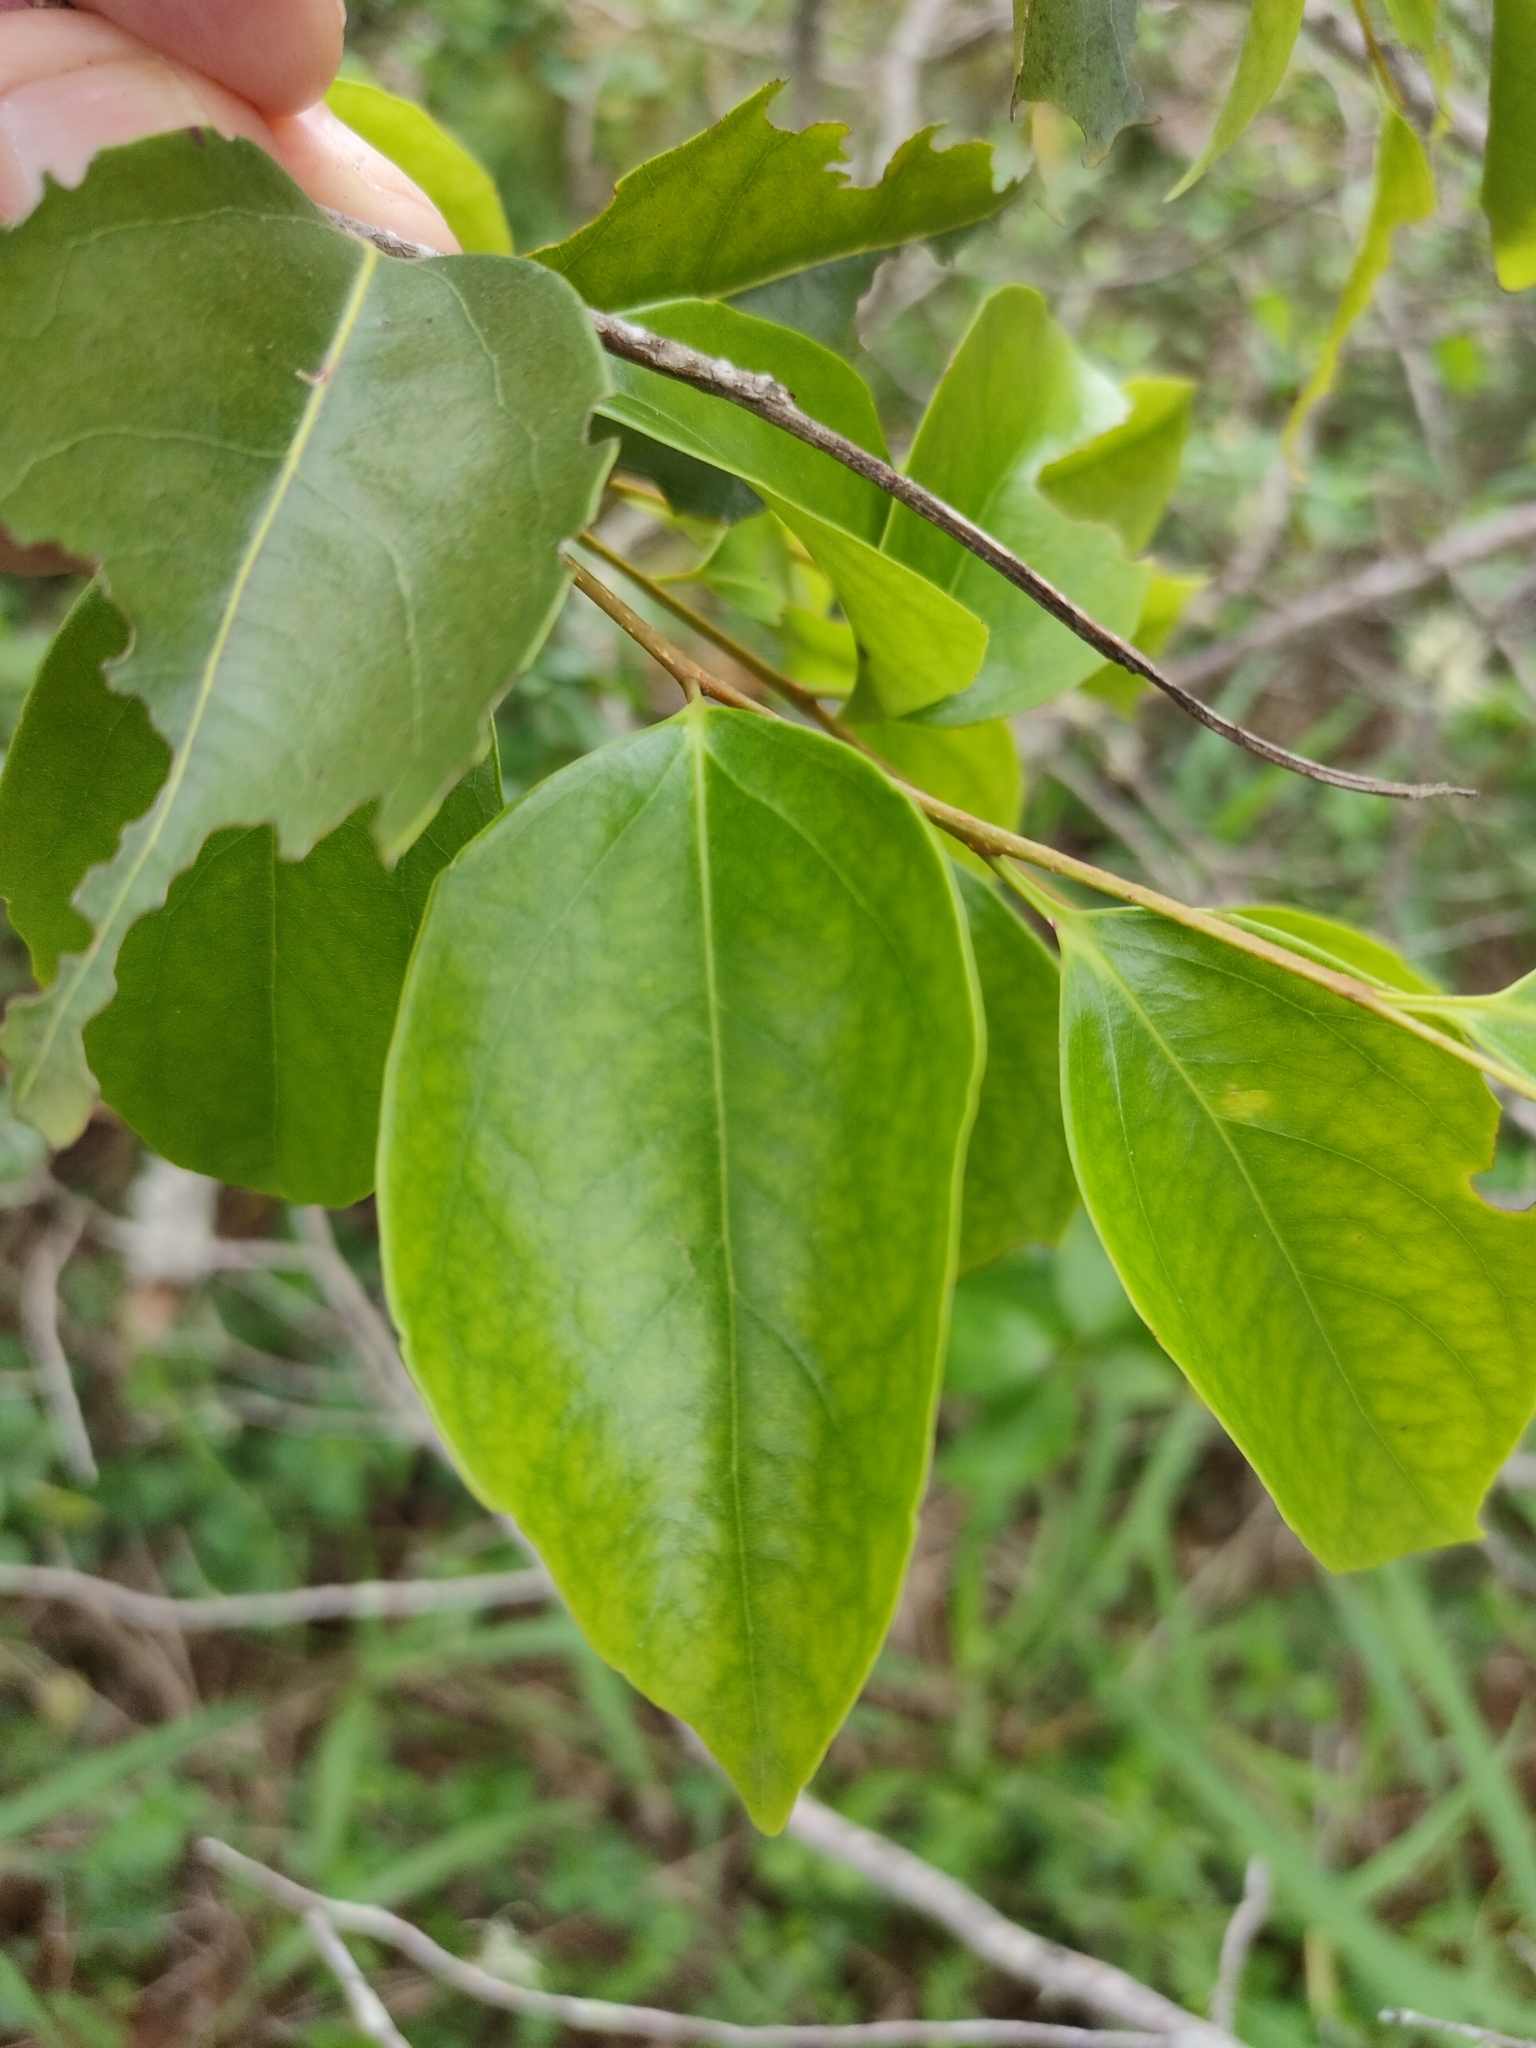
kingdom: Plantae
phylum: Tracheophyta
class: Magnoliopsida
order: Malpighiales
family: Salicaceae
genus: Scolopia
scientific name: Scolopia braunii
